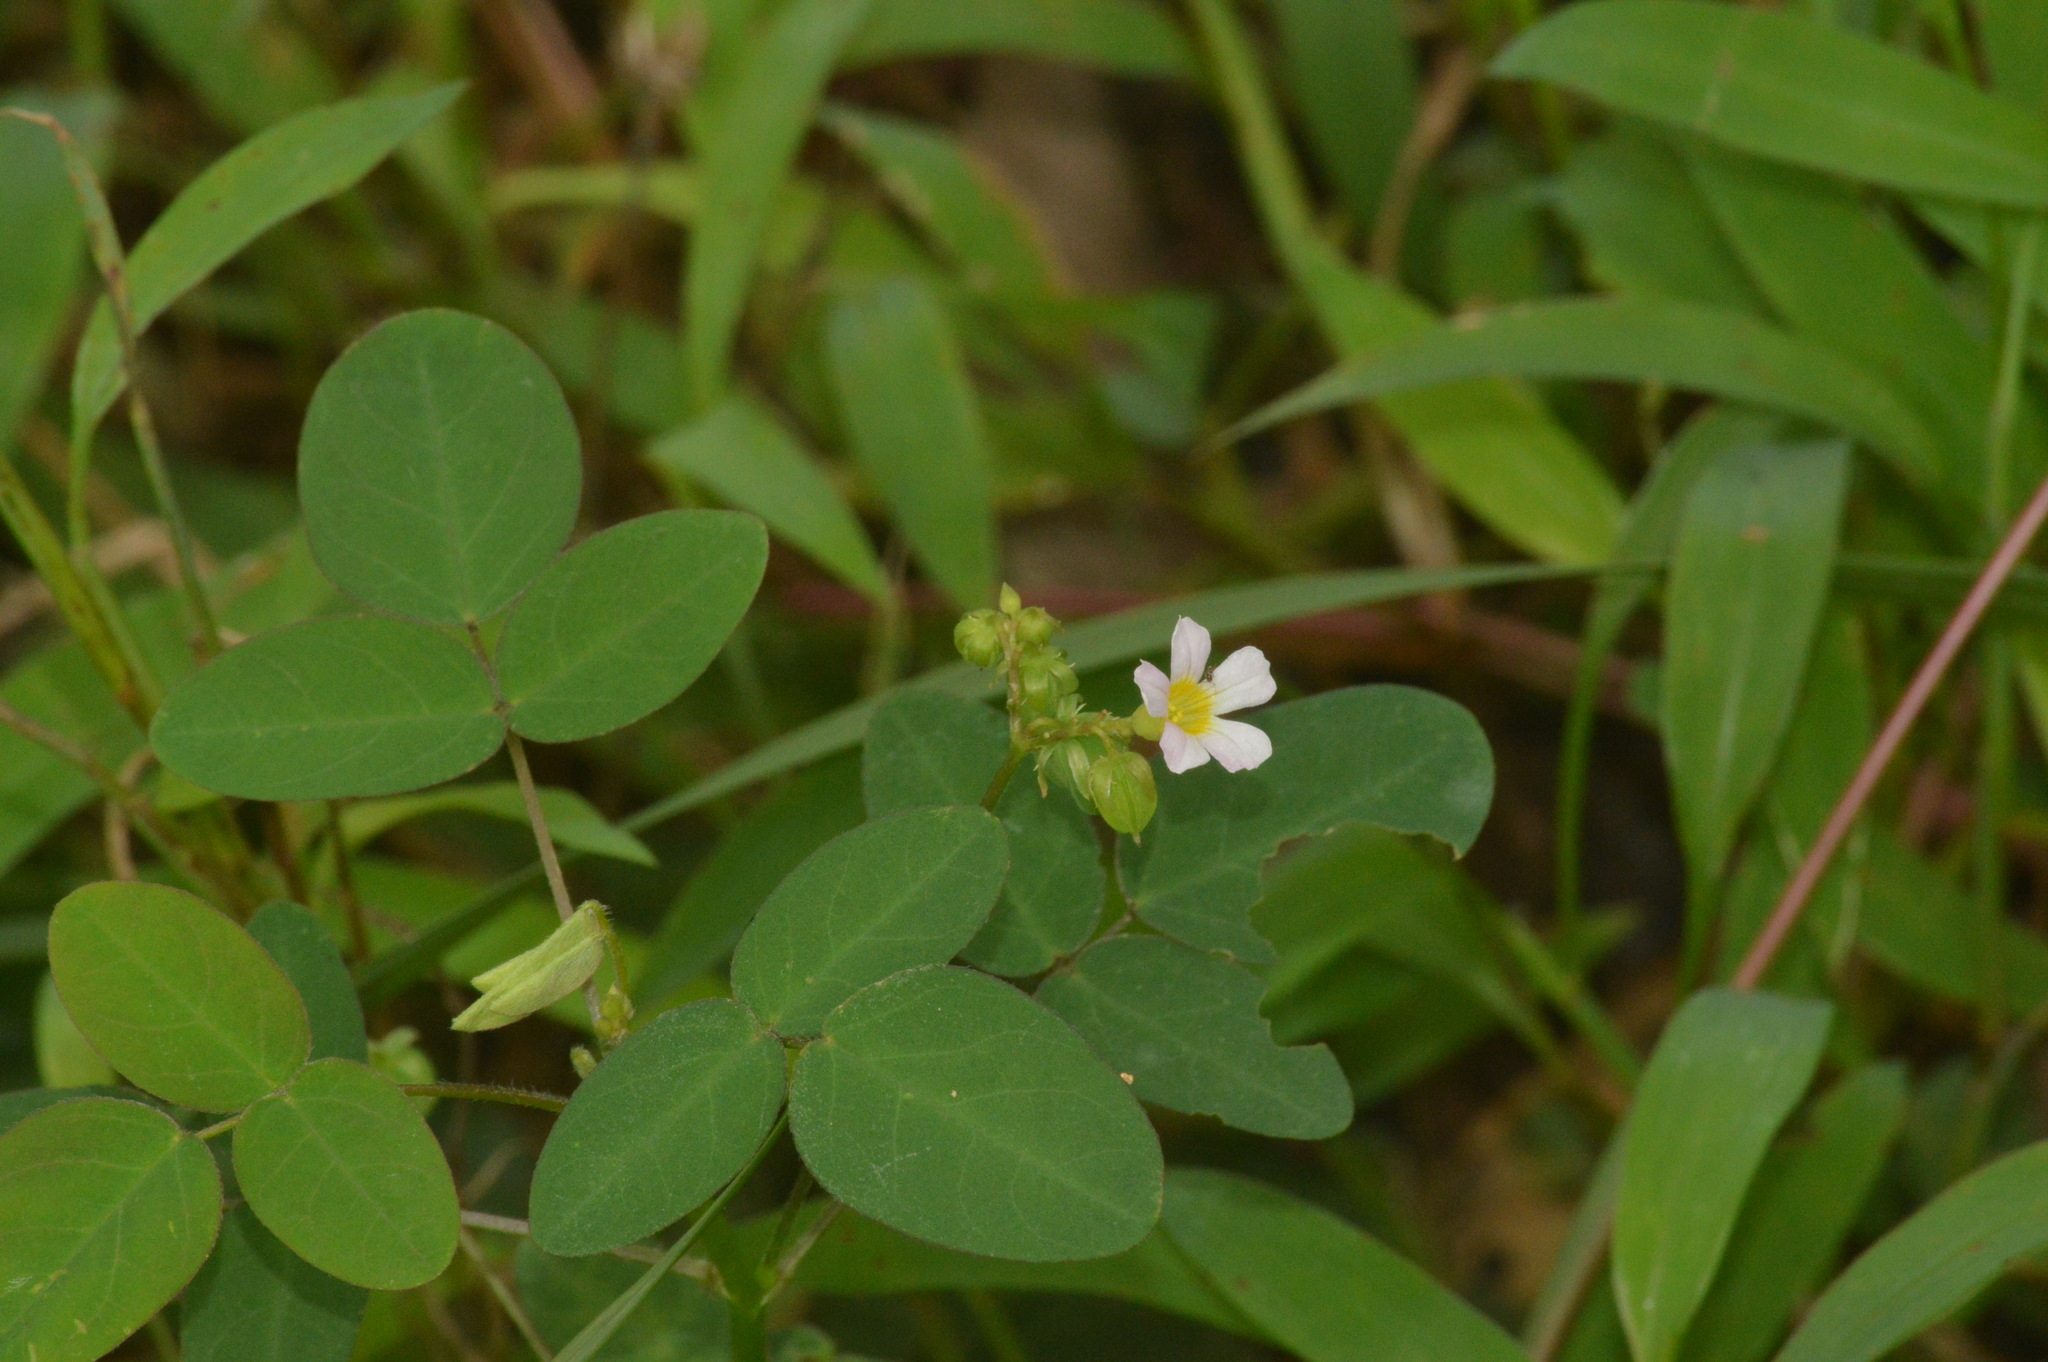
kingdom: Plantae
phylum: Tracheophyta
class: Magnoliopsida
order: Oxalidales
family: Oxalidaceae
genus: Oxalis
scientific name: Oxalis barrelieri
